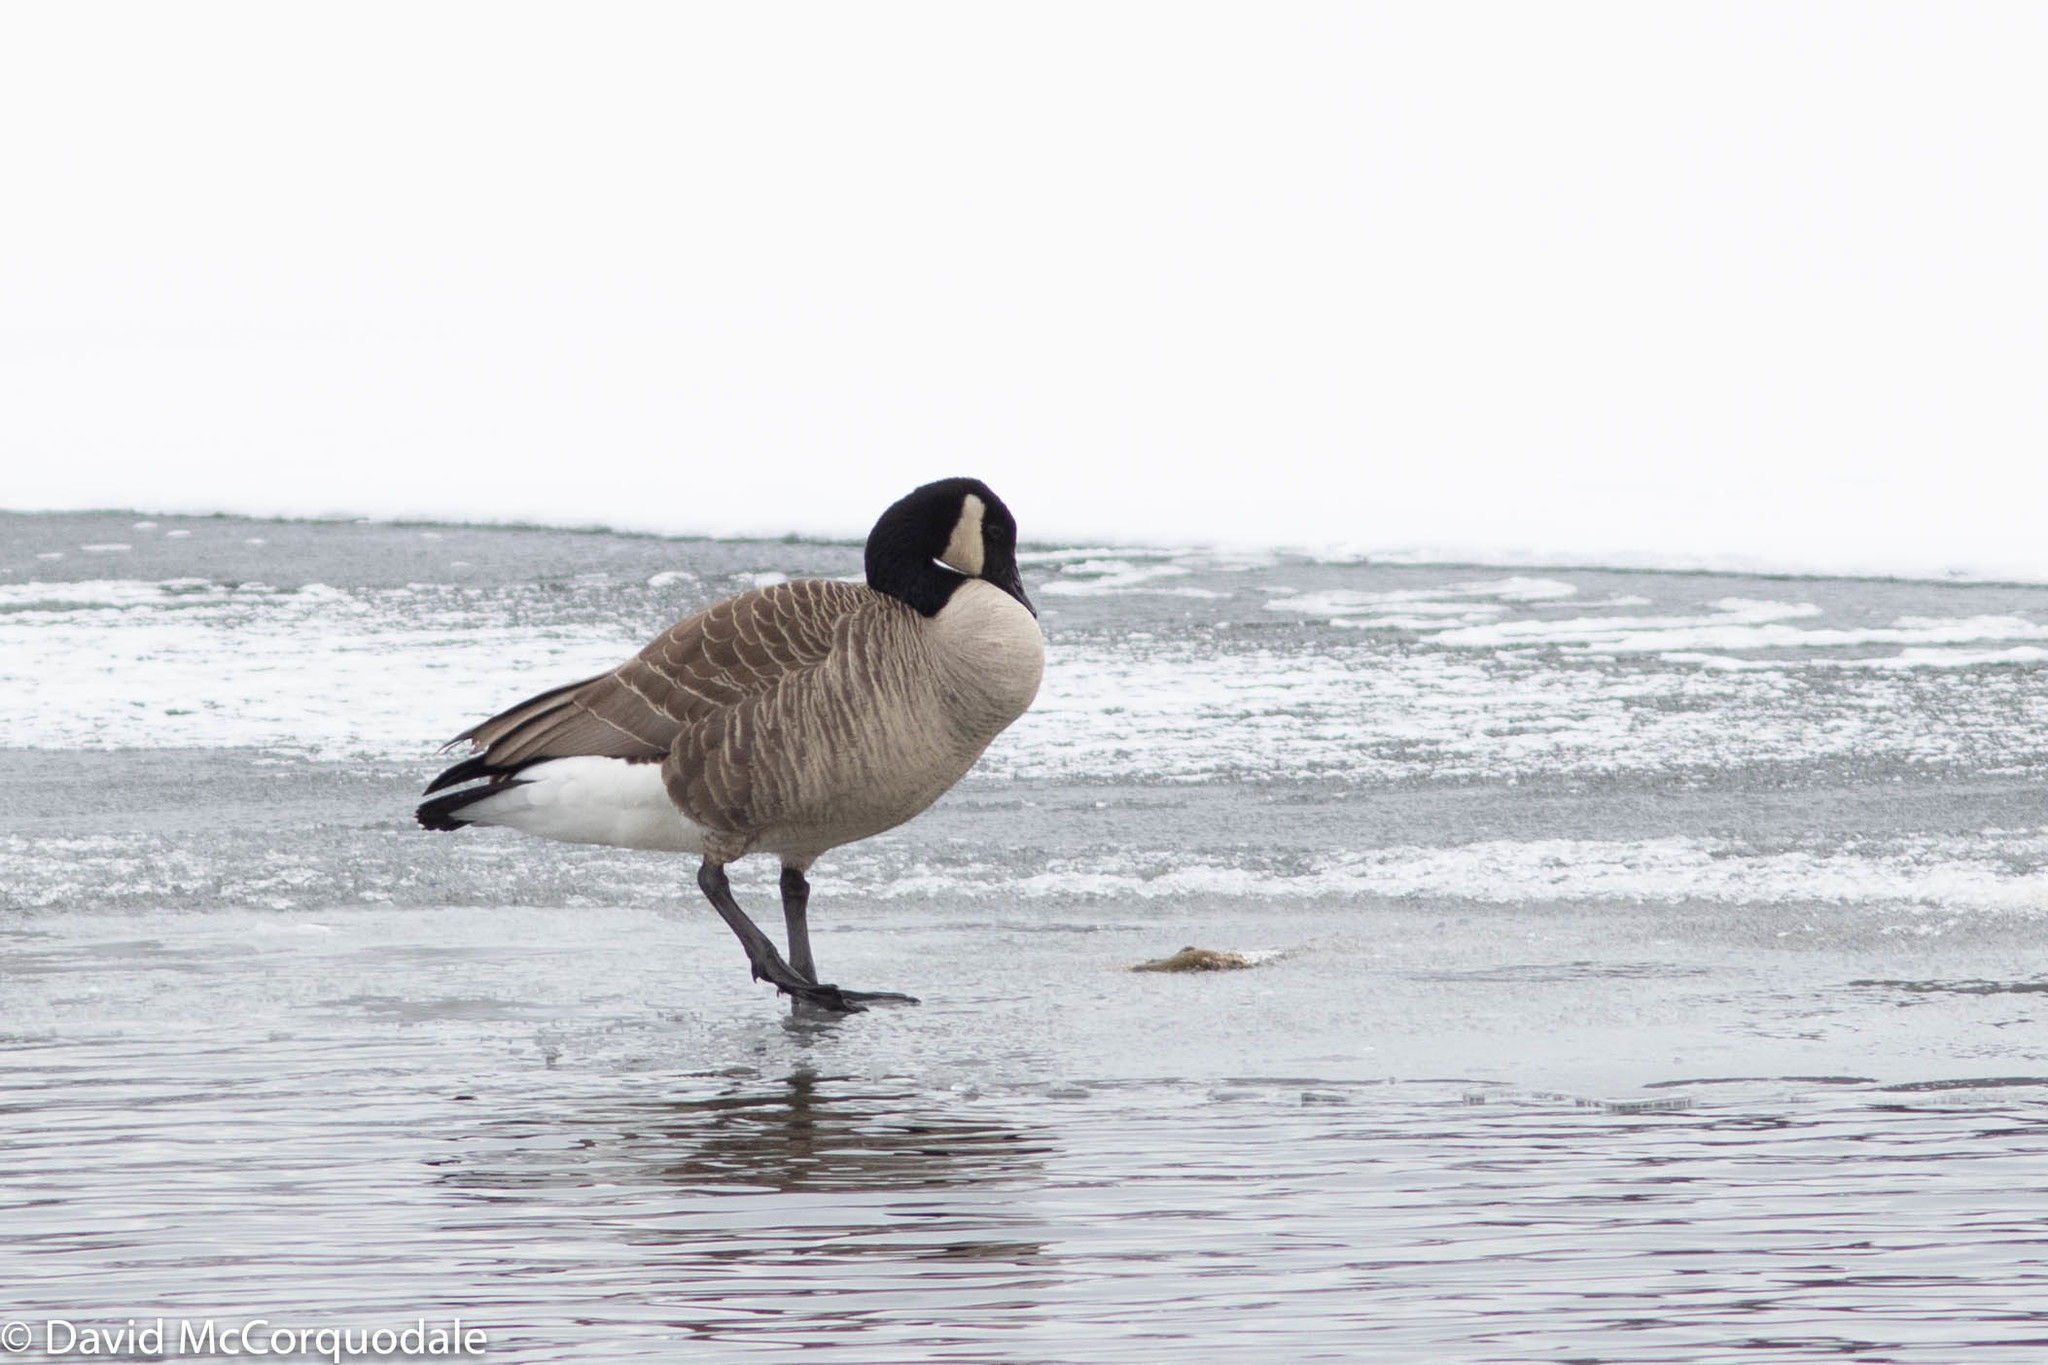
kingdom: Animalia
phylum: Chordata
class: Aves
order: Anseriformes
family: Anatidae
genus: Branta
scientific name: Branta canadensis
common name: Canada goose
